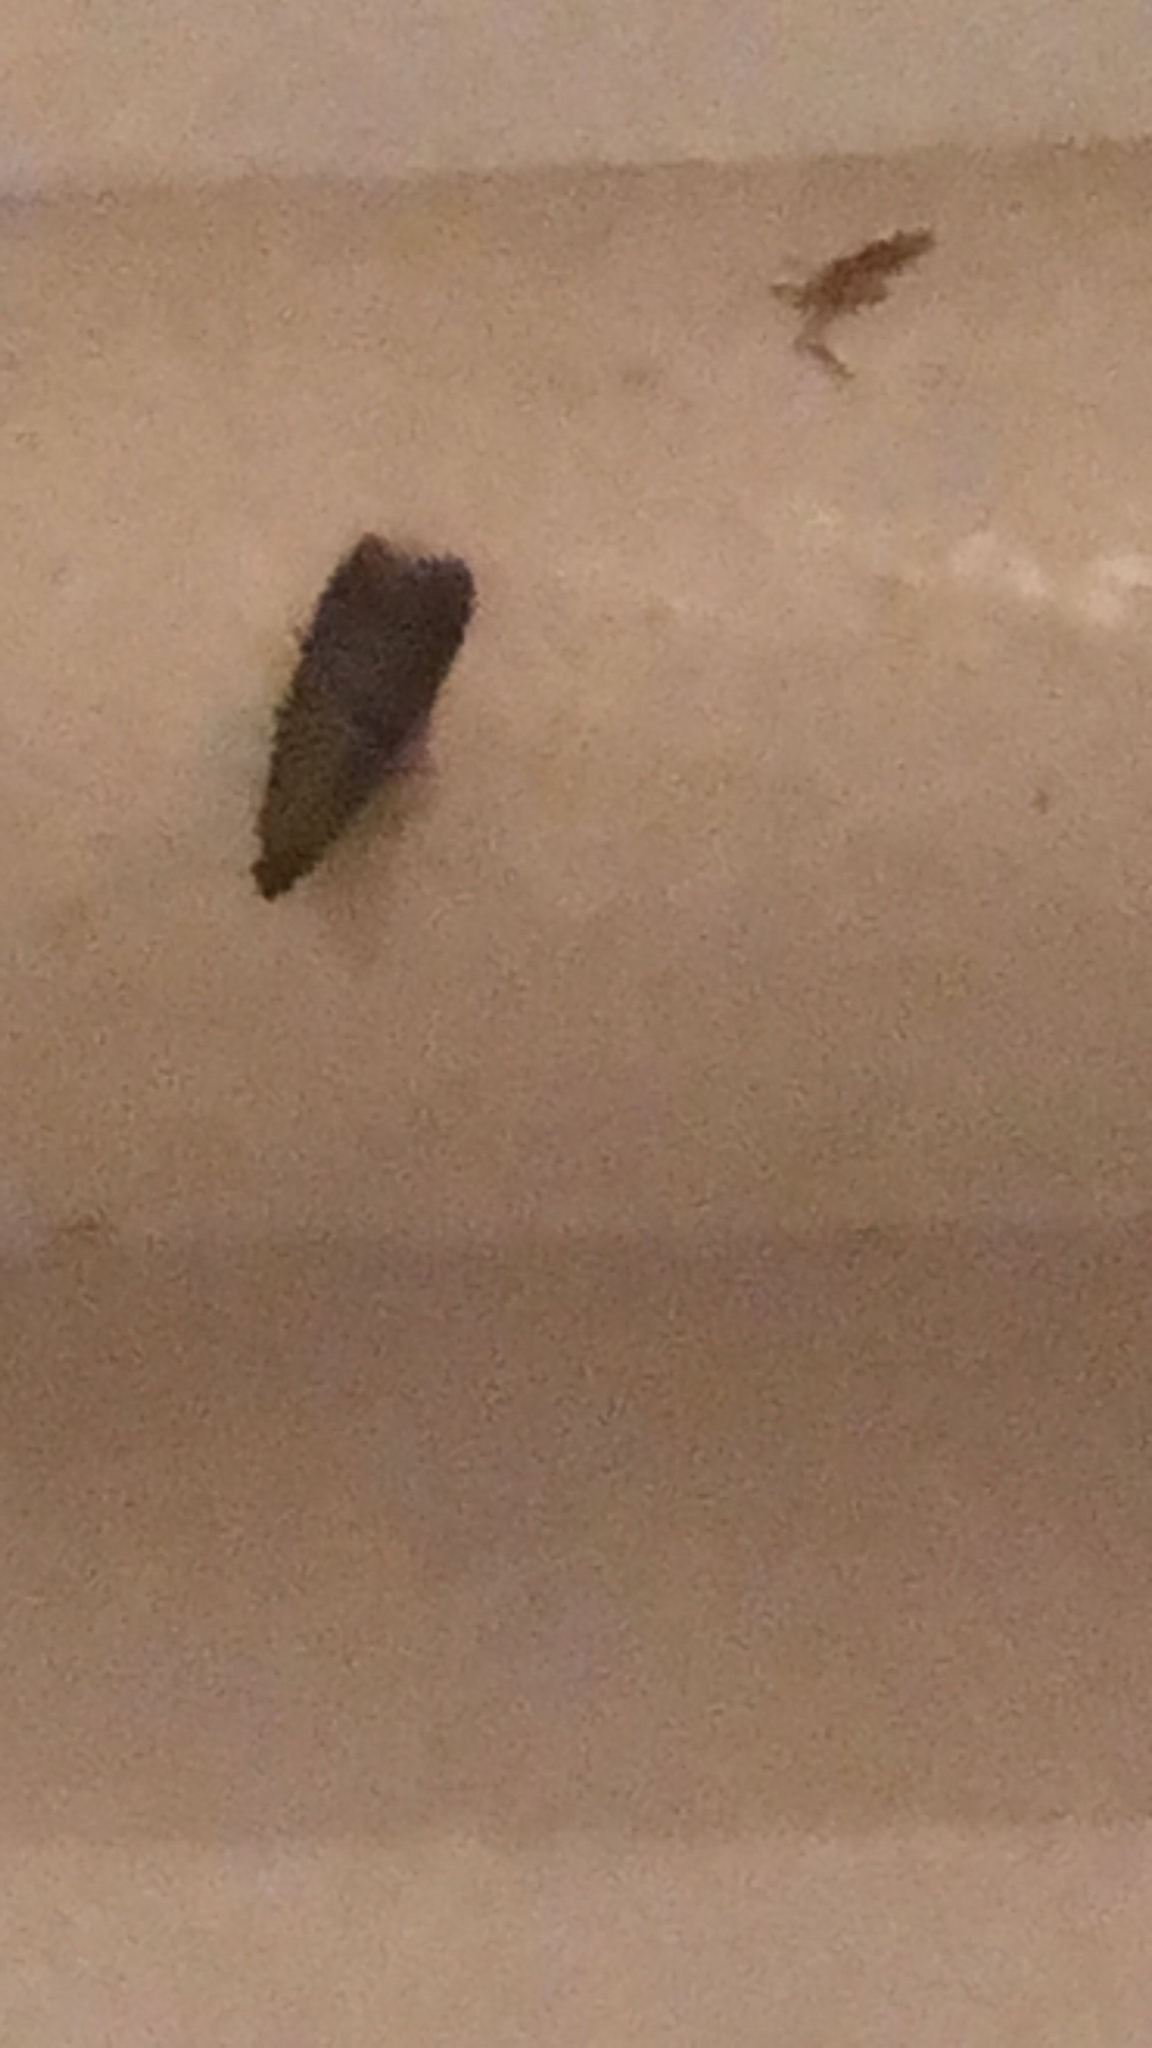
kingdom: Animalia
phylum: Arthropoda
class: Insecta
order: Lepidoptera
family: Pyralidae
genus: Plodia
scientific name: Plodia interpunctella
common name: Indian meal moth
